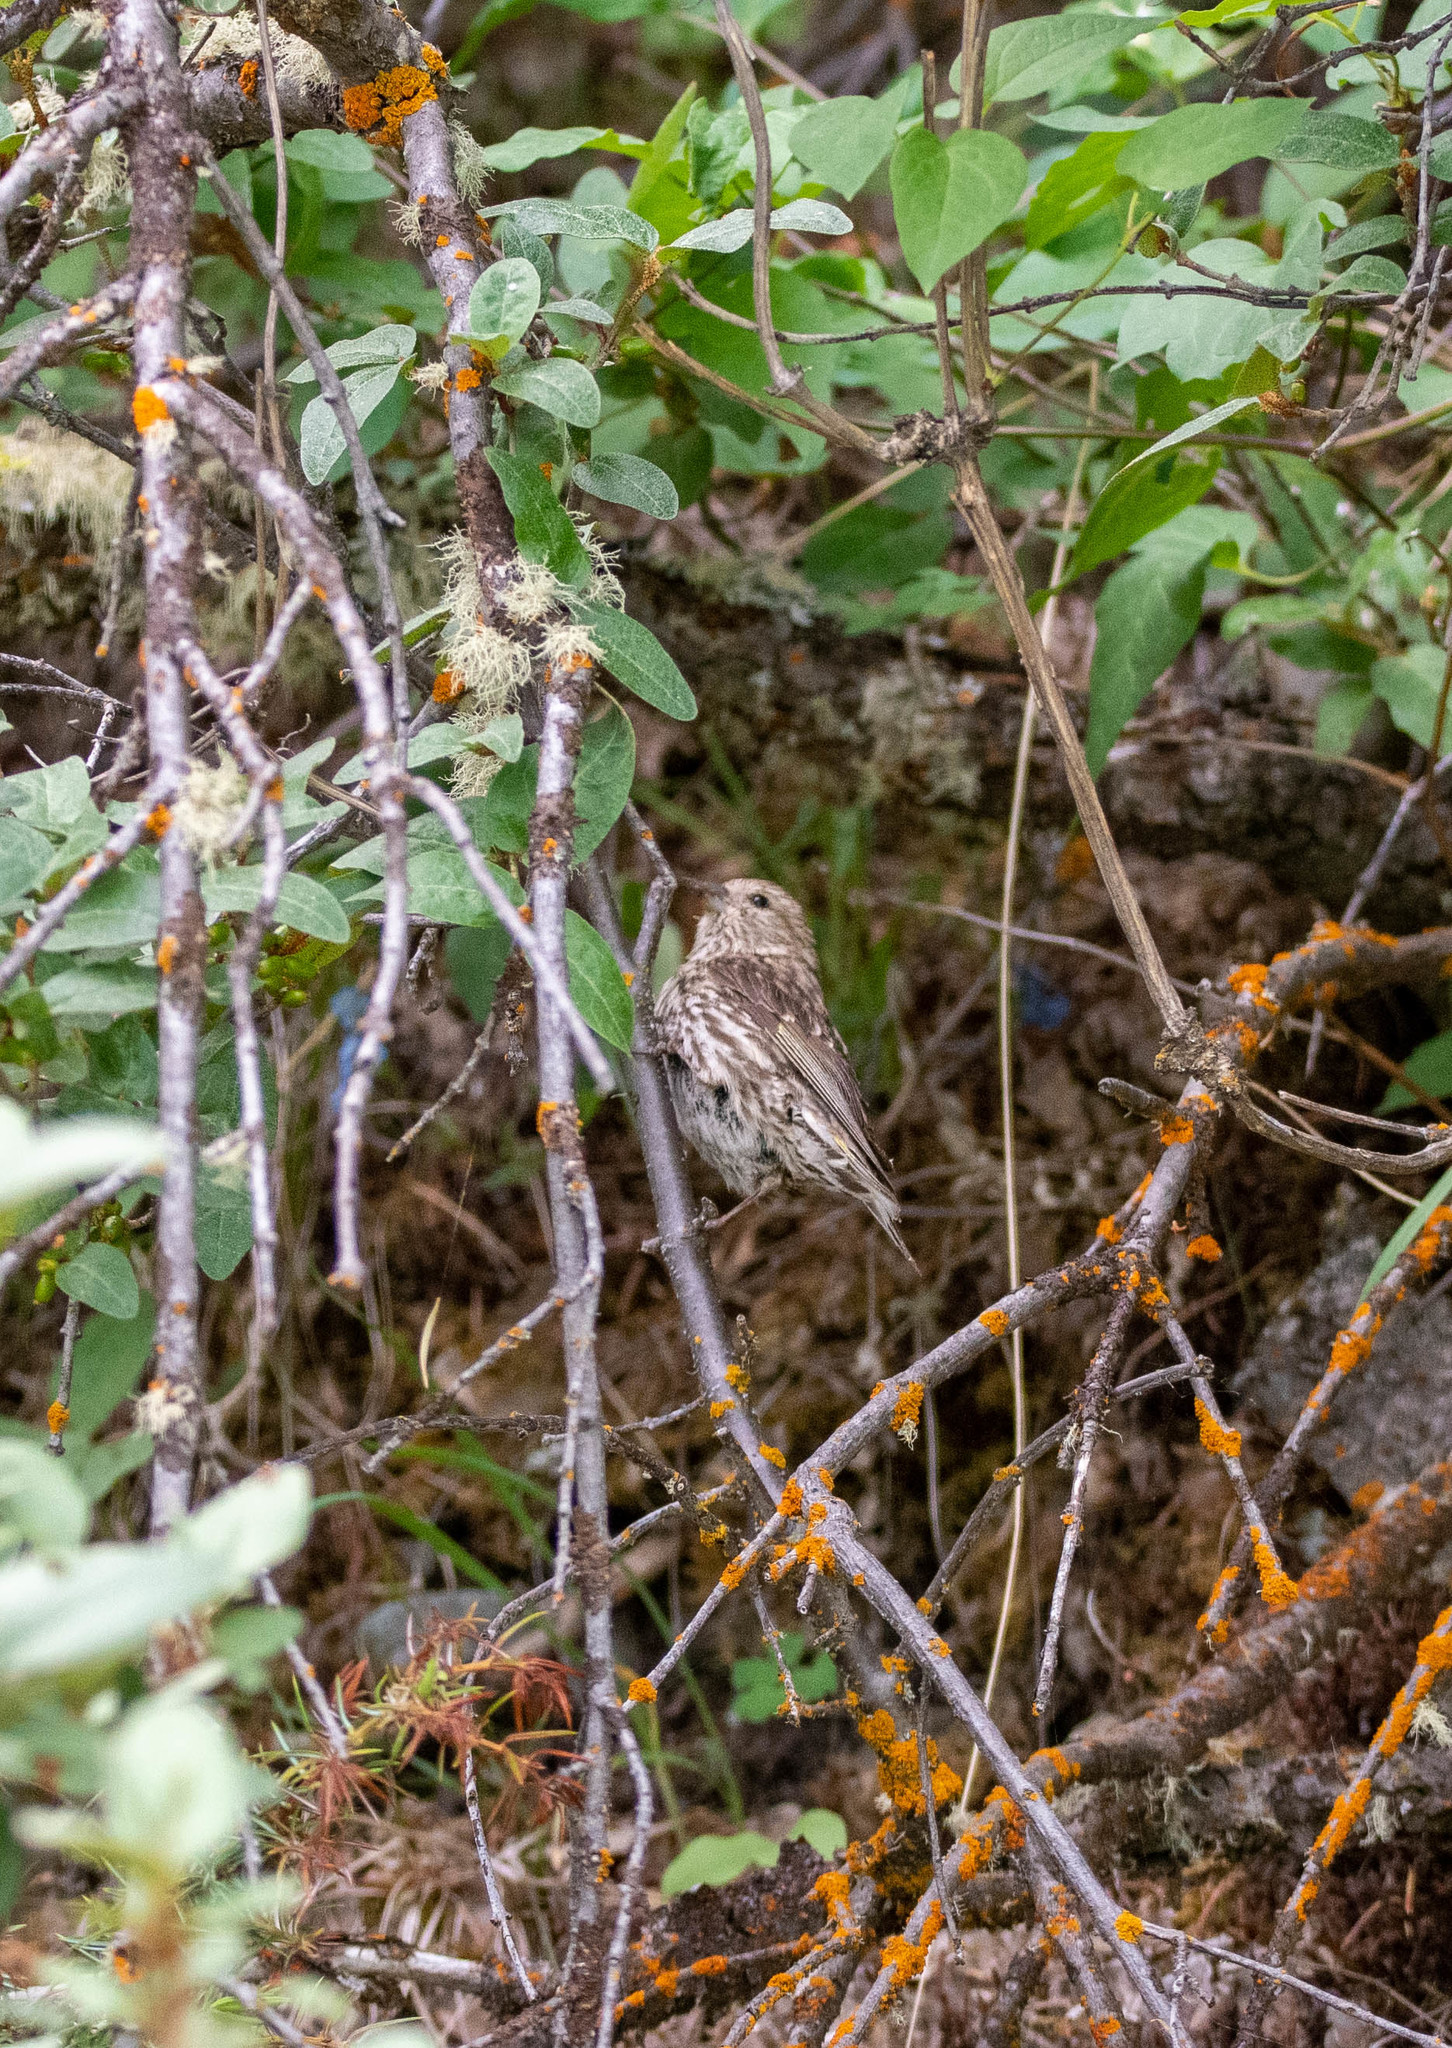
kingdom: Animalia
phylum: Chordata
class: Aves
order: Passeriformes
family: Fringillidae
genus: Spinus
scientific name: Spinus pinus
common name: Pine siskin
